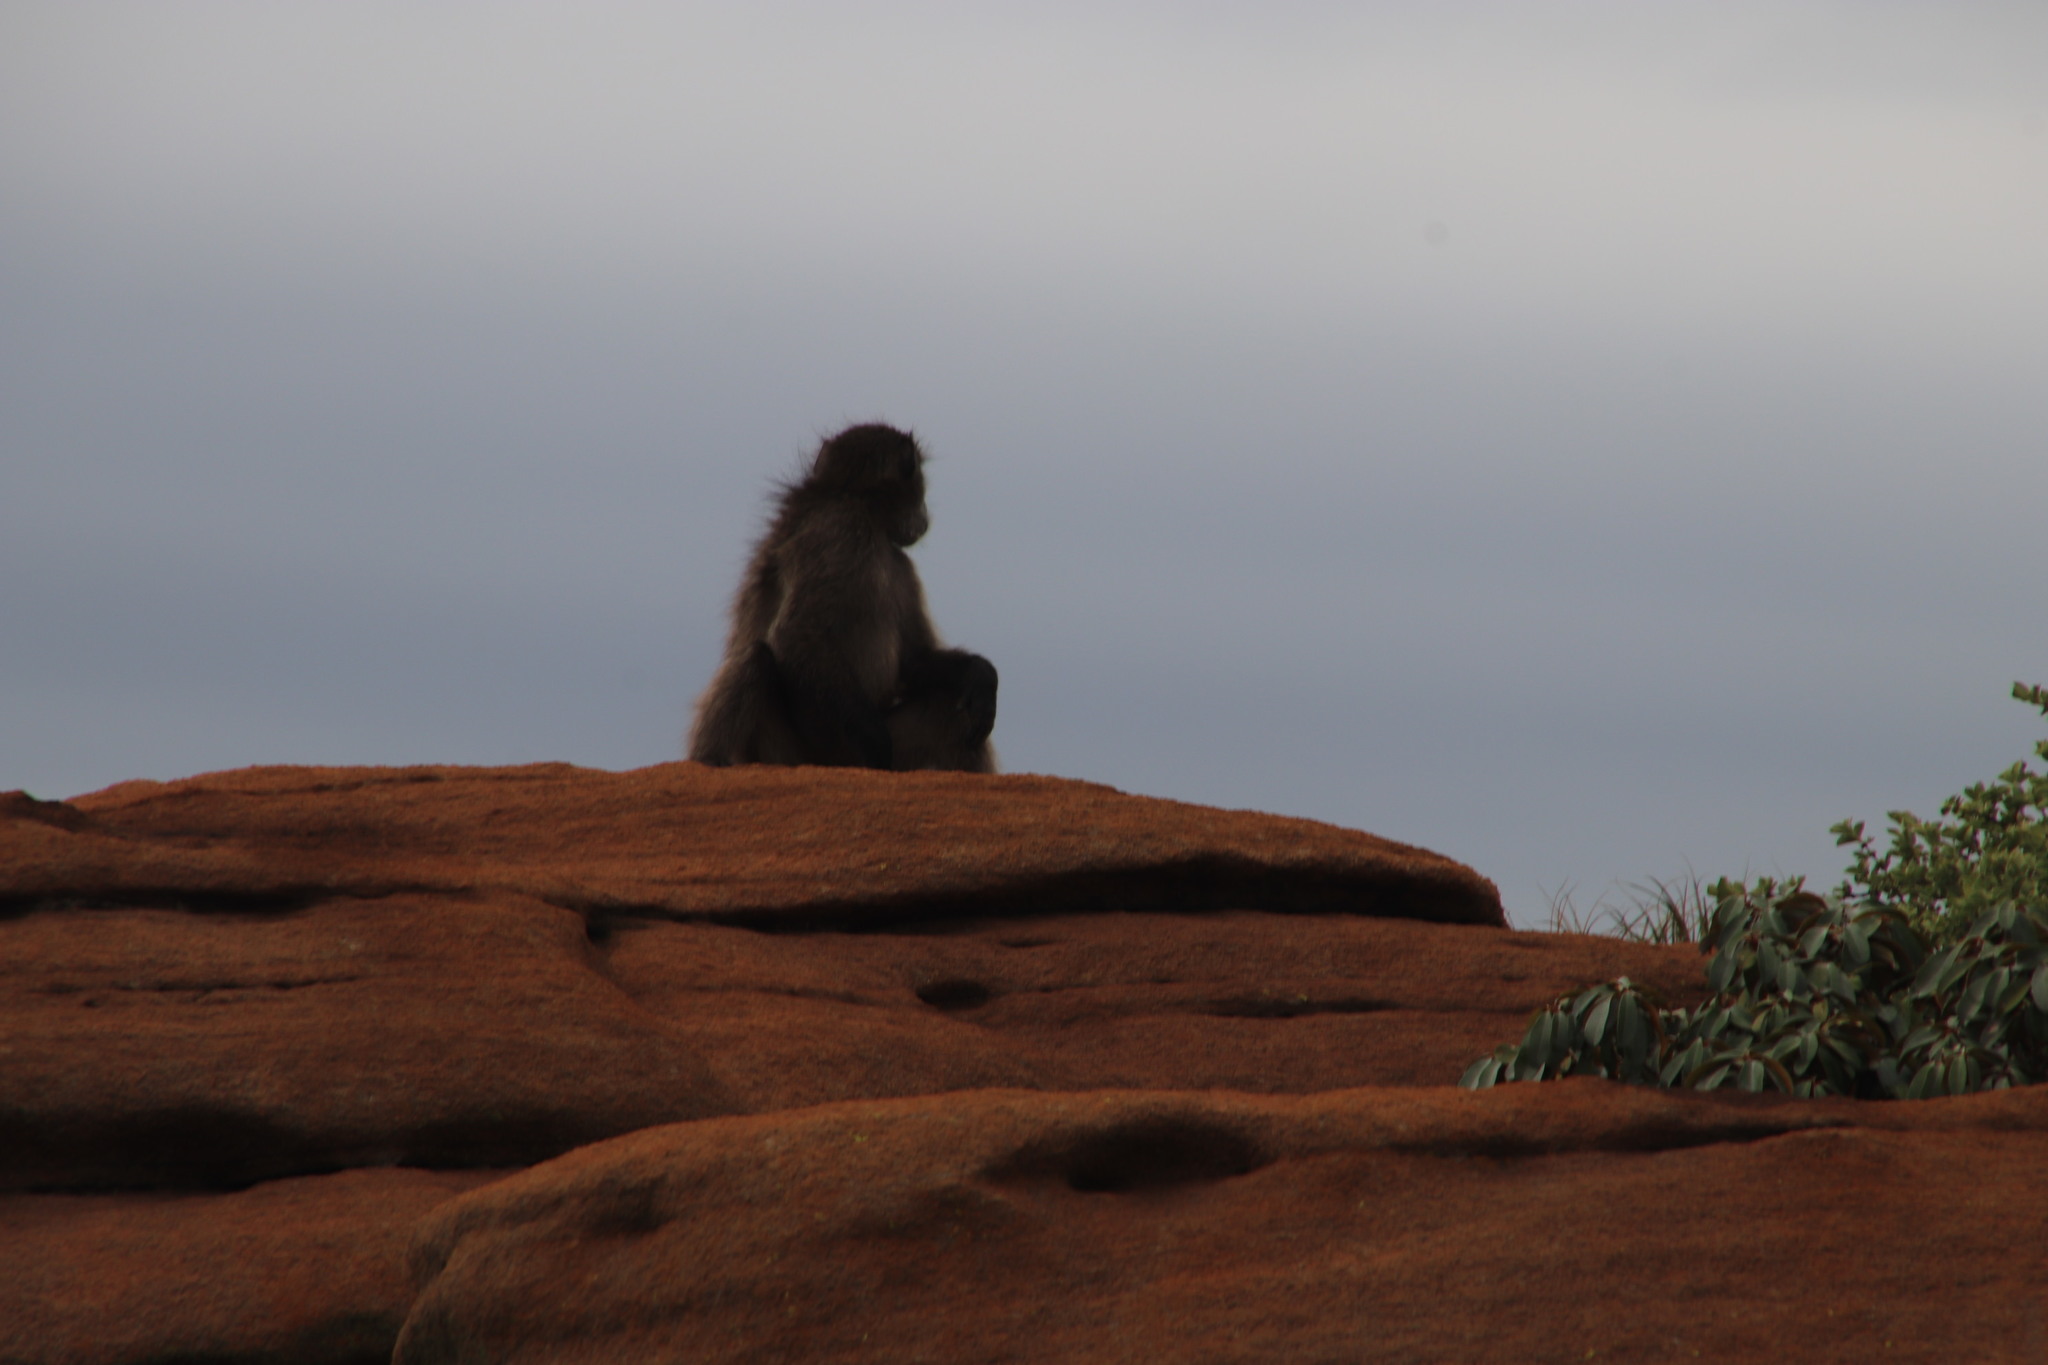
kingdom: Animalia
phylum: Chordata
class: Mammalia
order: Primates
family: Cercopithecidae
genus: Papio
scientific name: Papio ursinus
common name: Chacma baboon
